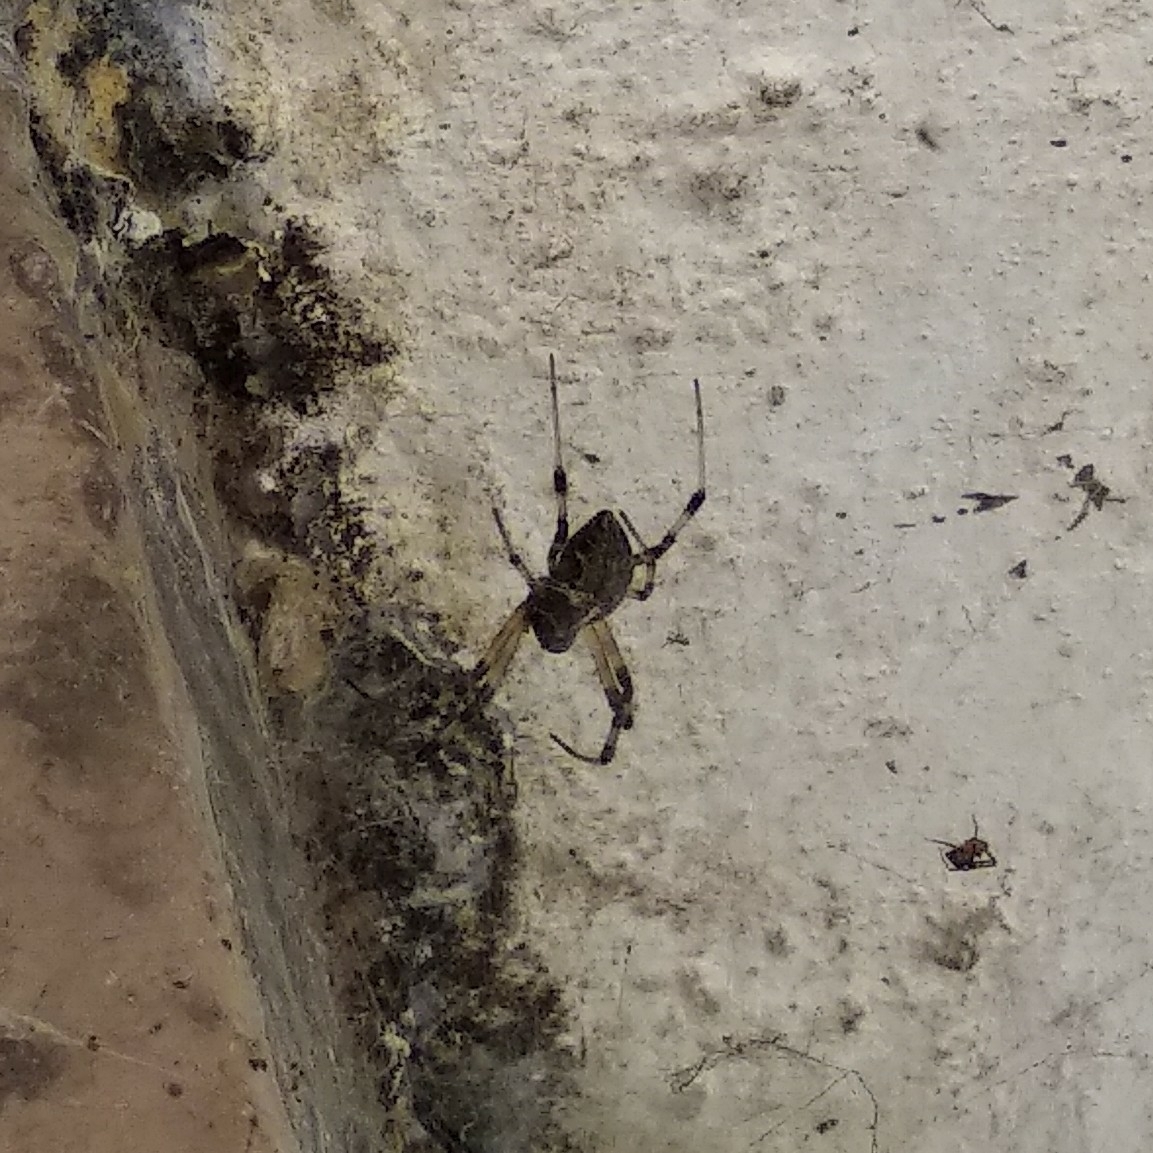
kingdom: Animalia
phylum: Arthropoda
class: Arachnida
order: Araneae
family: Araneidae
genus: Nephilengys
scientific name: Nephilengys malabarensis
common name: Asian hermit spider
